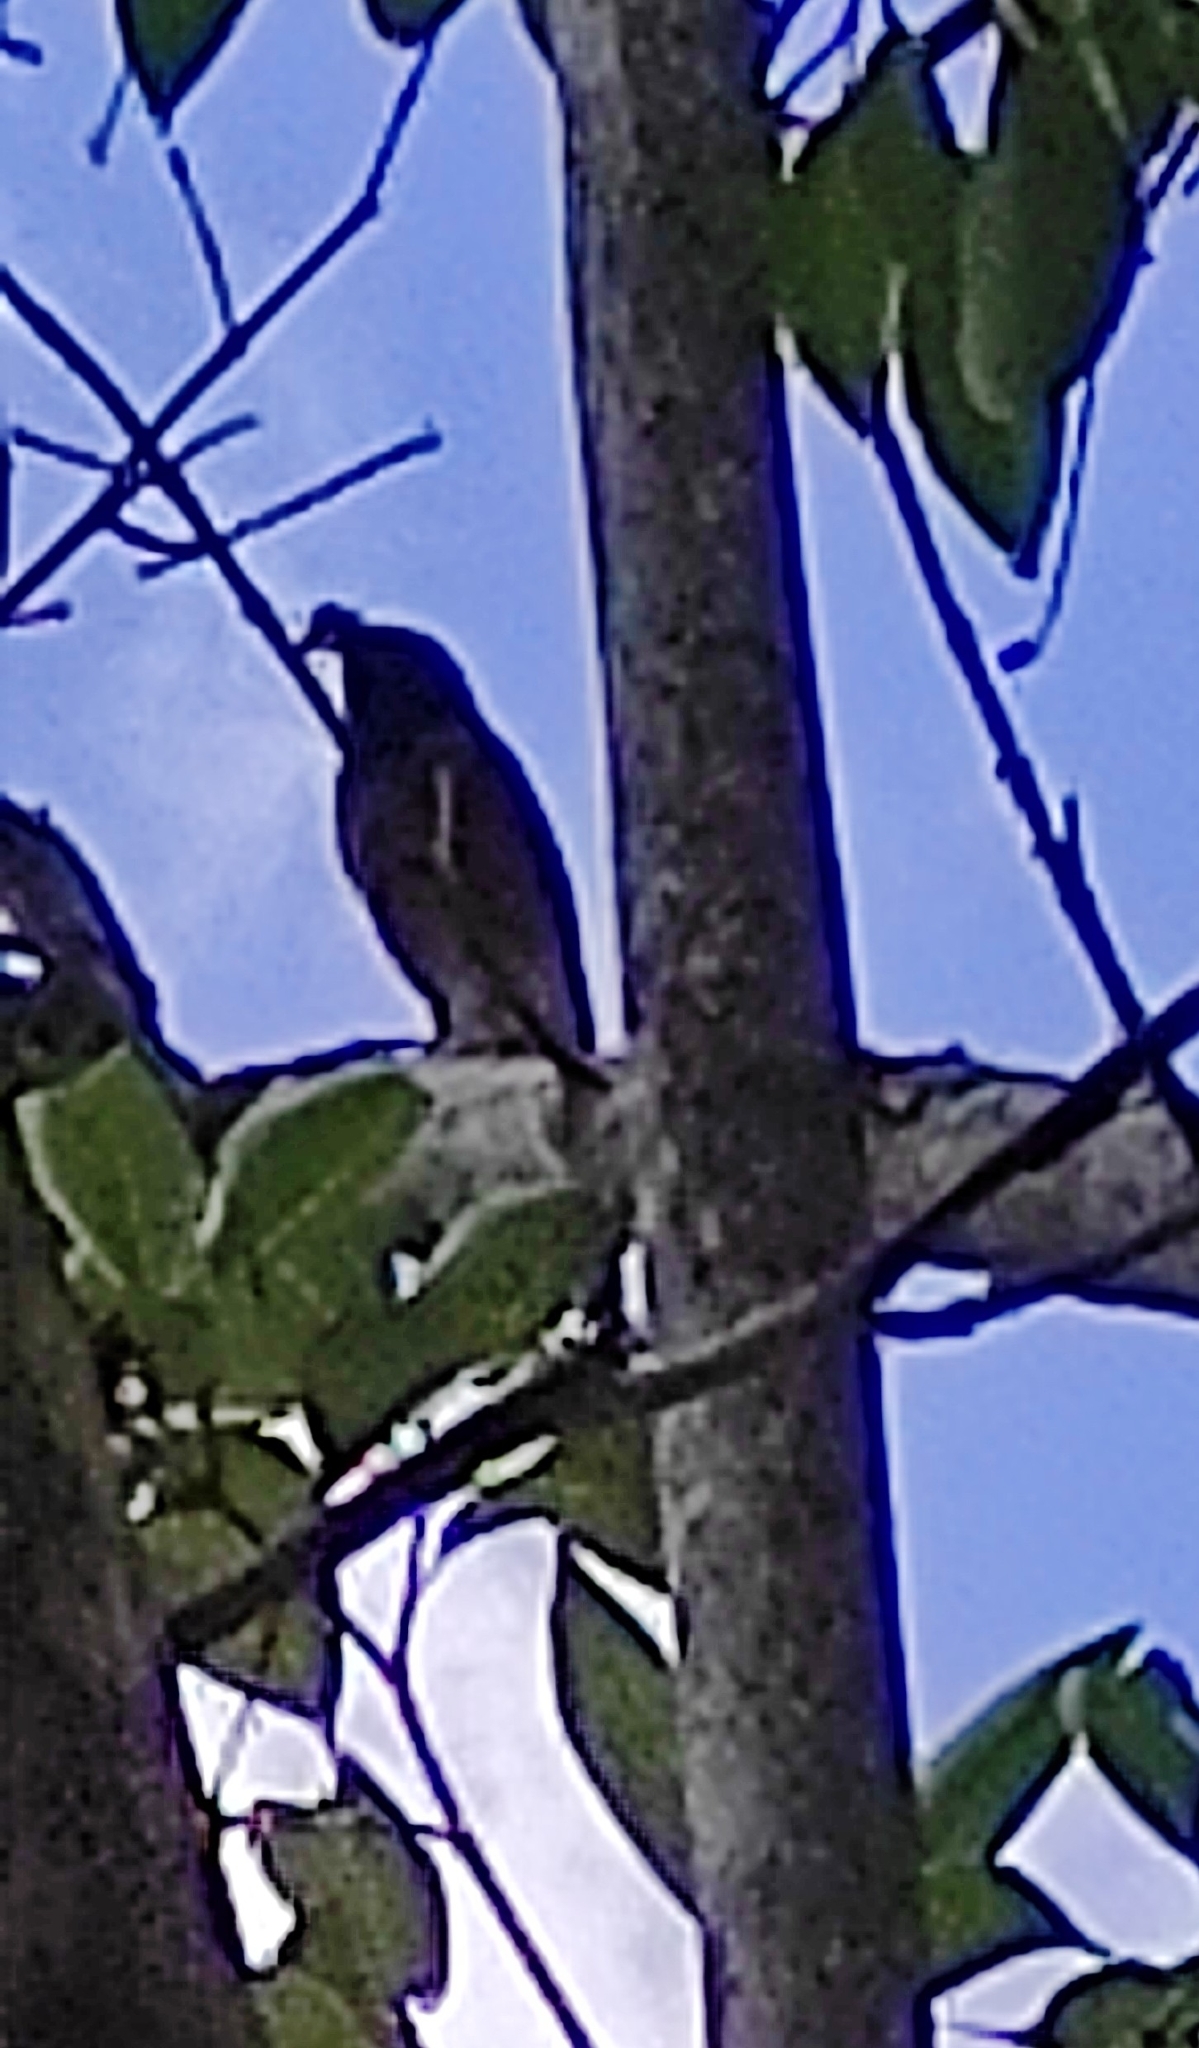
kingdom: Animalia
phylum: Chordata
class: Aves
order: Passeriformes
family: Muscicapidae
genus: Phoenicurus
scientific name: Phoenicurus phoenicurus
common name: Common redstart
